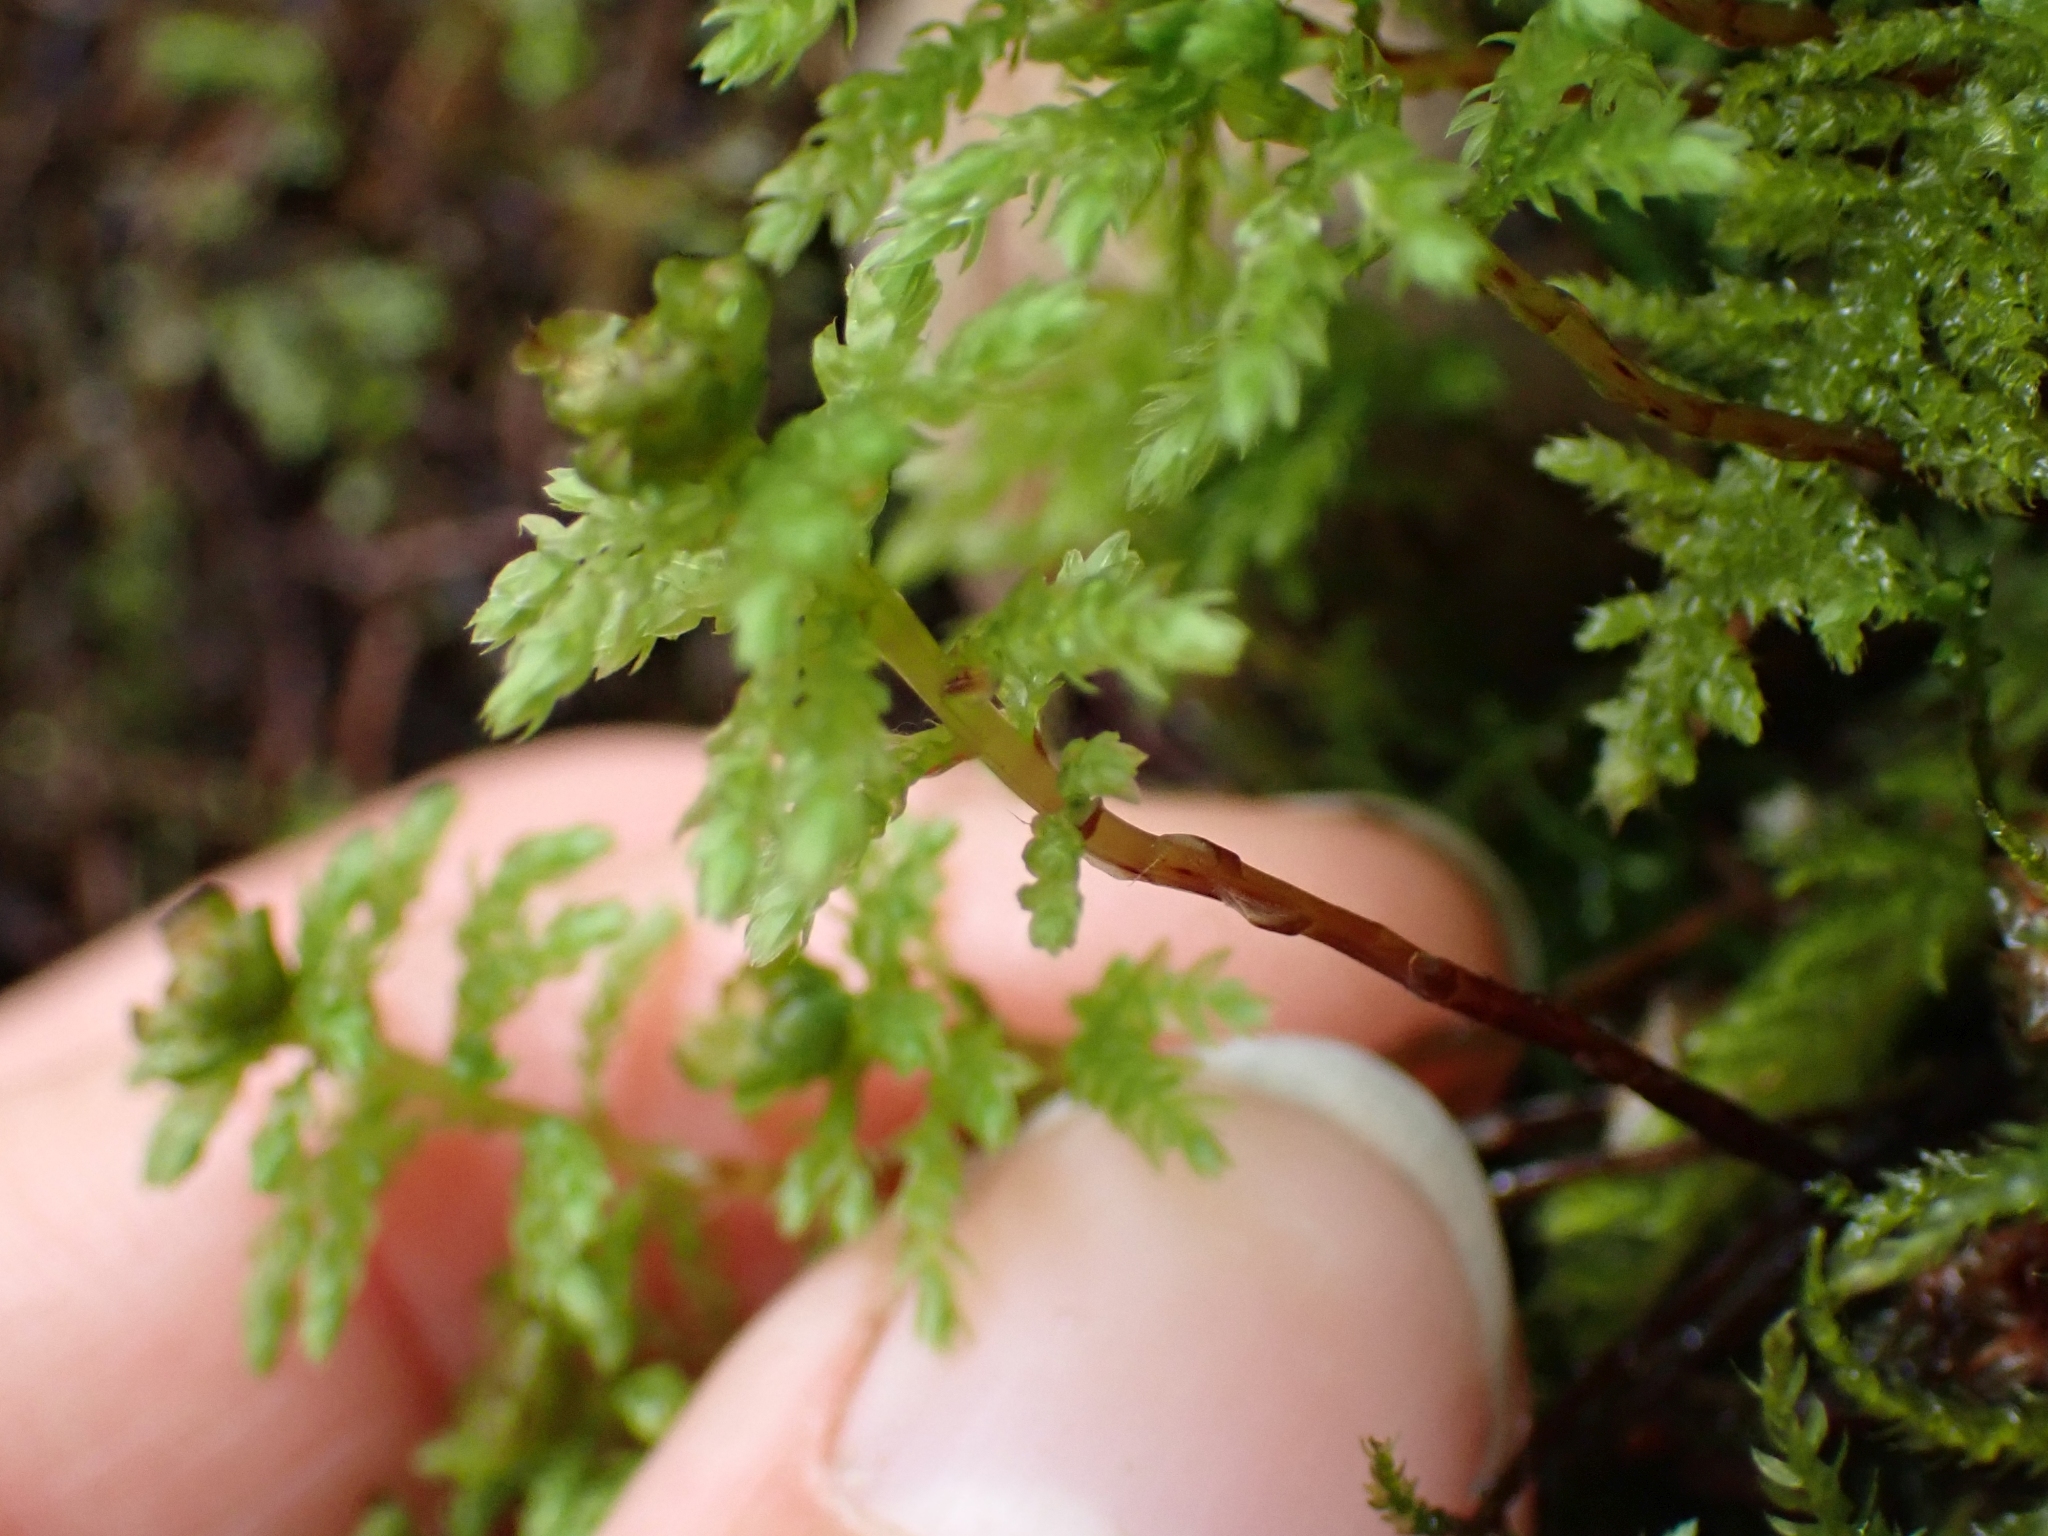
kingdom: Plantae
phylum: Bryophyta
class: Bryopsida
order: Bryales
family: Mniaceae
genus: Leucolepis
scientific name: Leucolepis acanthoneura
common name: Leucolepis umbrella moss
